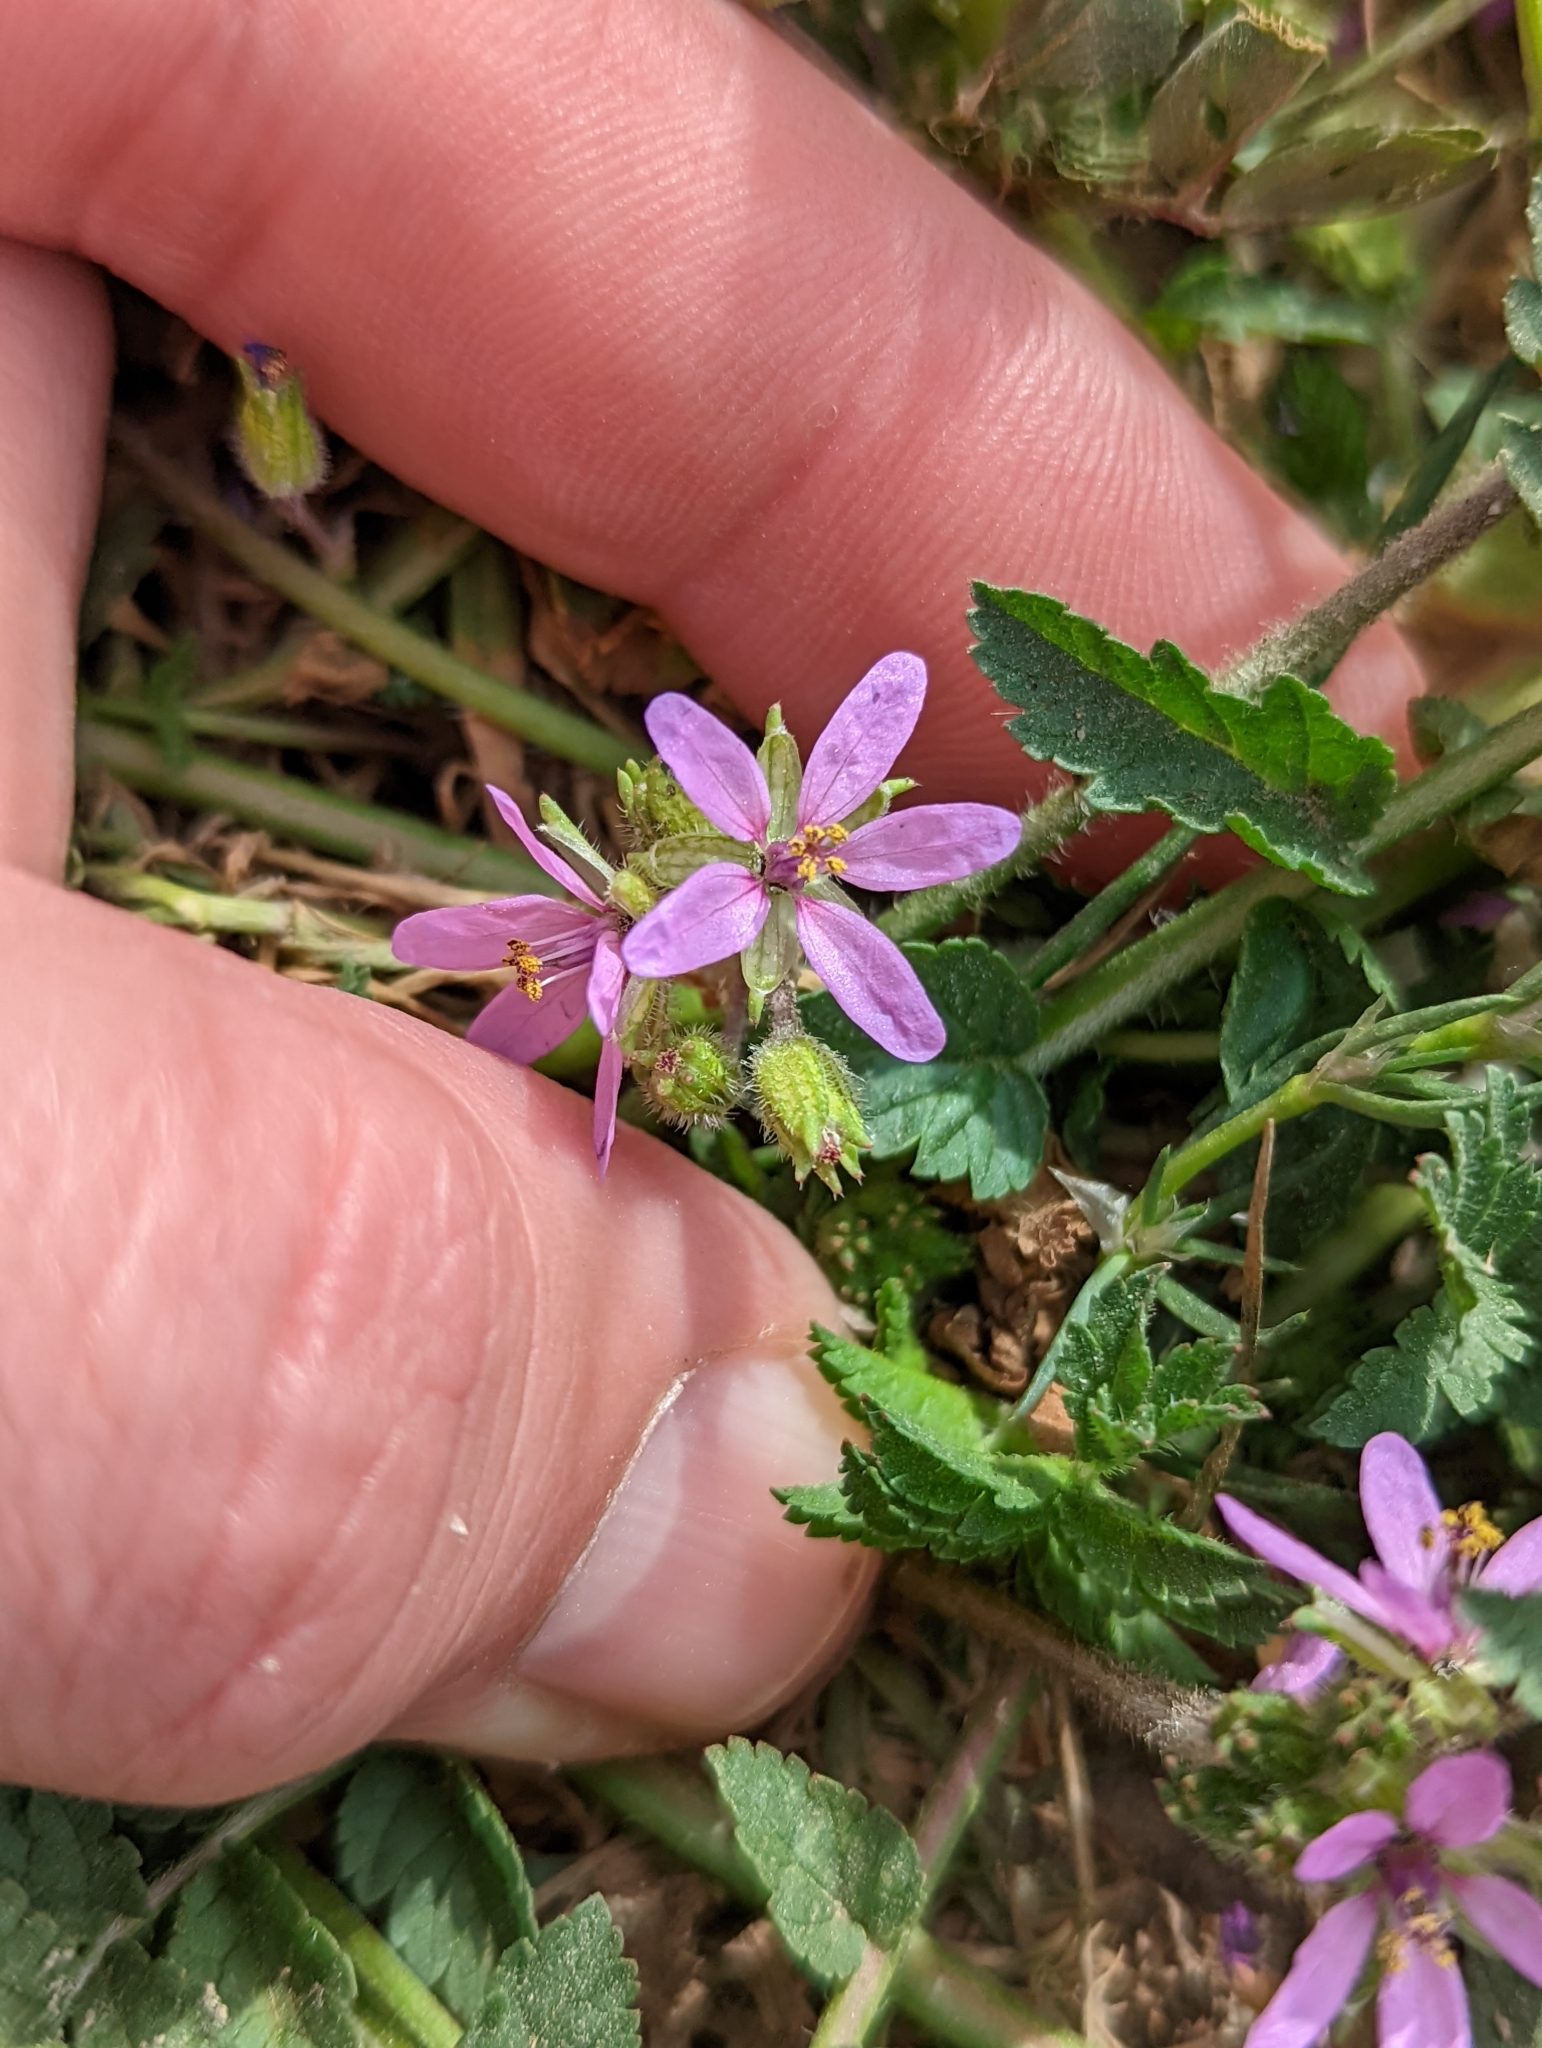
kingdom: Plantae
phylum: Tracheophyta
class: Magnoliopsida
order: Geraniales
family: Geraniaceae
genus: Erodium
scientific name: Erodium moschatum
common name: Musk stork's-bill
